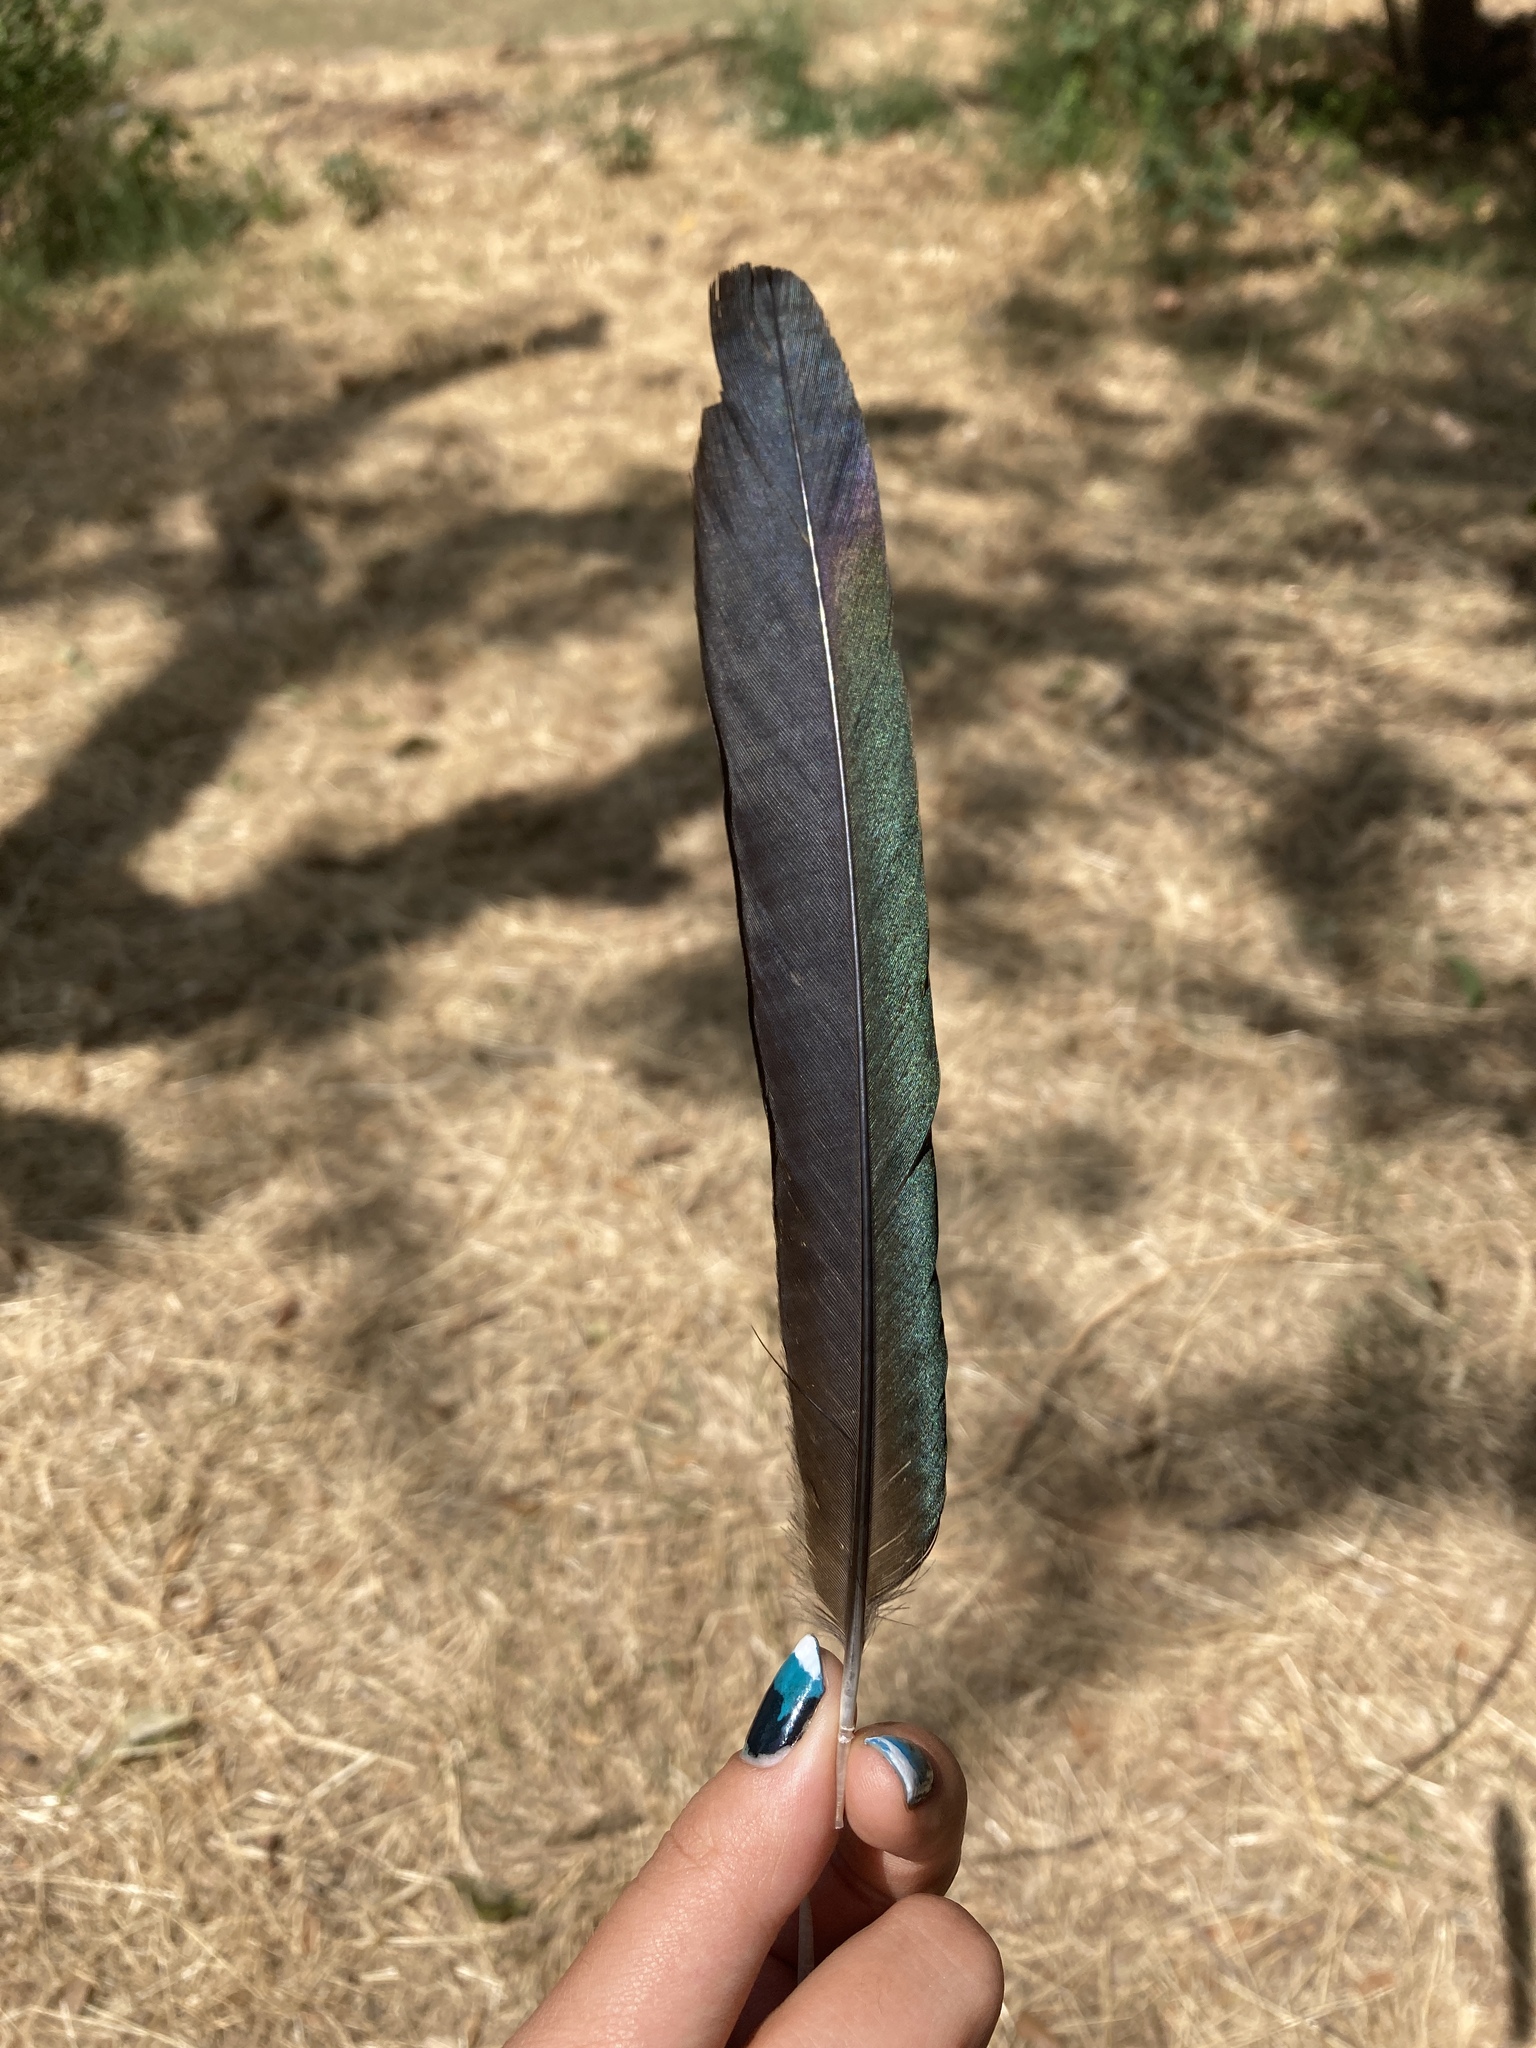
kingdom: Animalia
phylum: Chordata
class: Aves
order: Passeriformes
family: Corvidae
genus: Pica
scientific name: Pica pica
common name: Eurasian magpie
